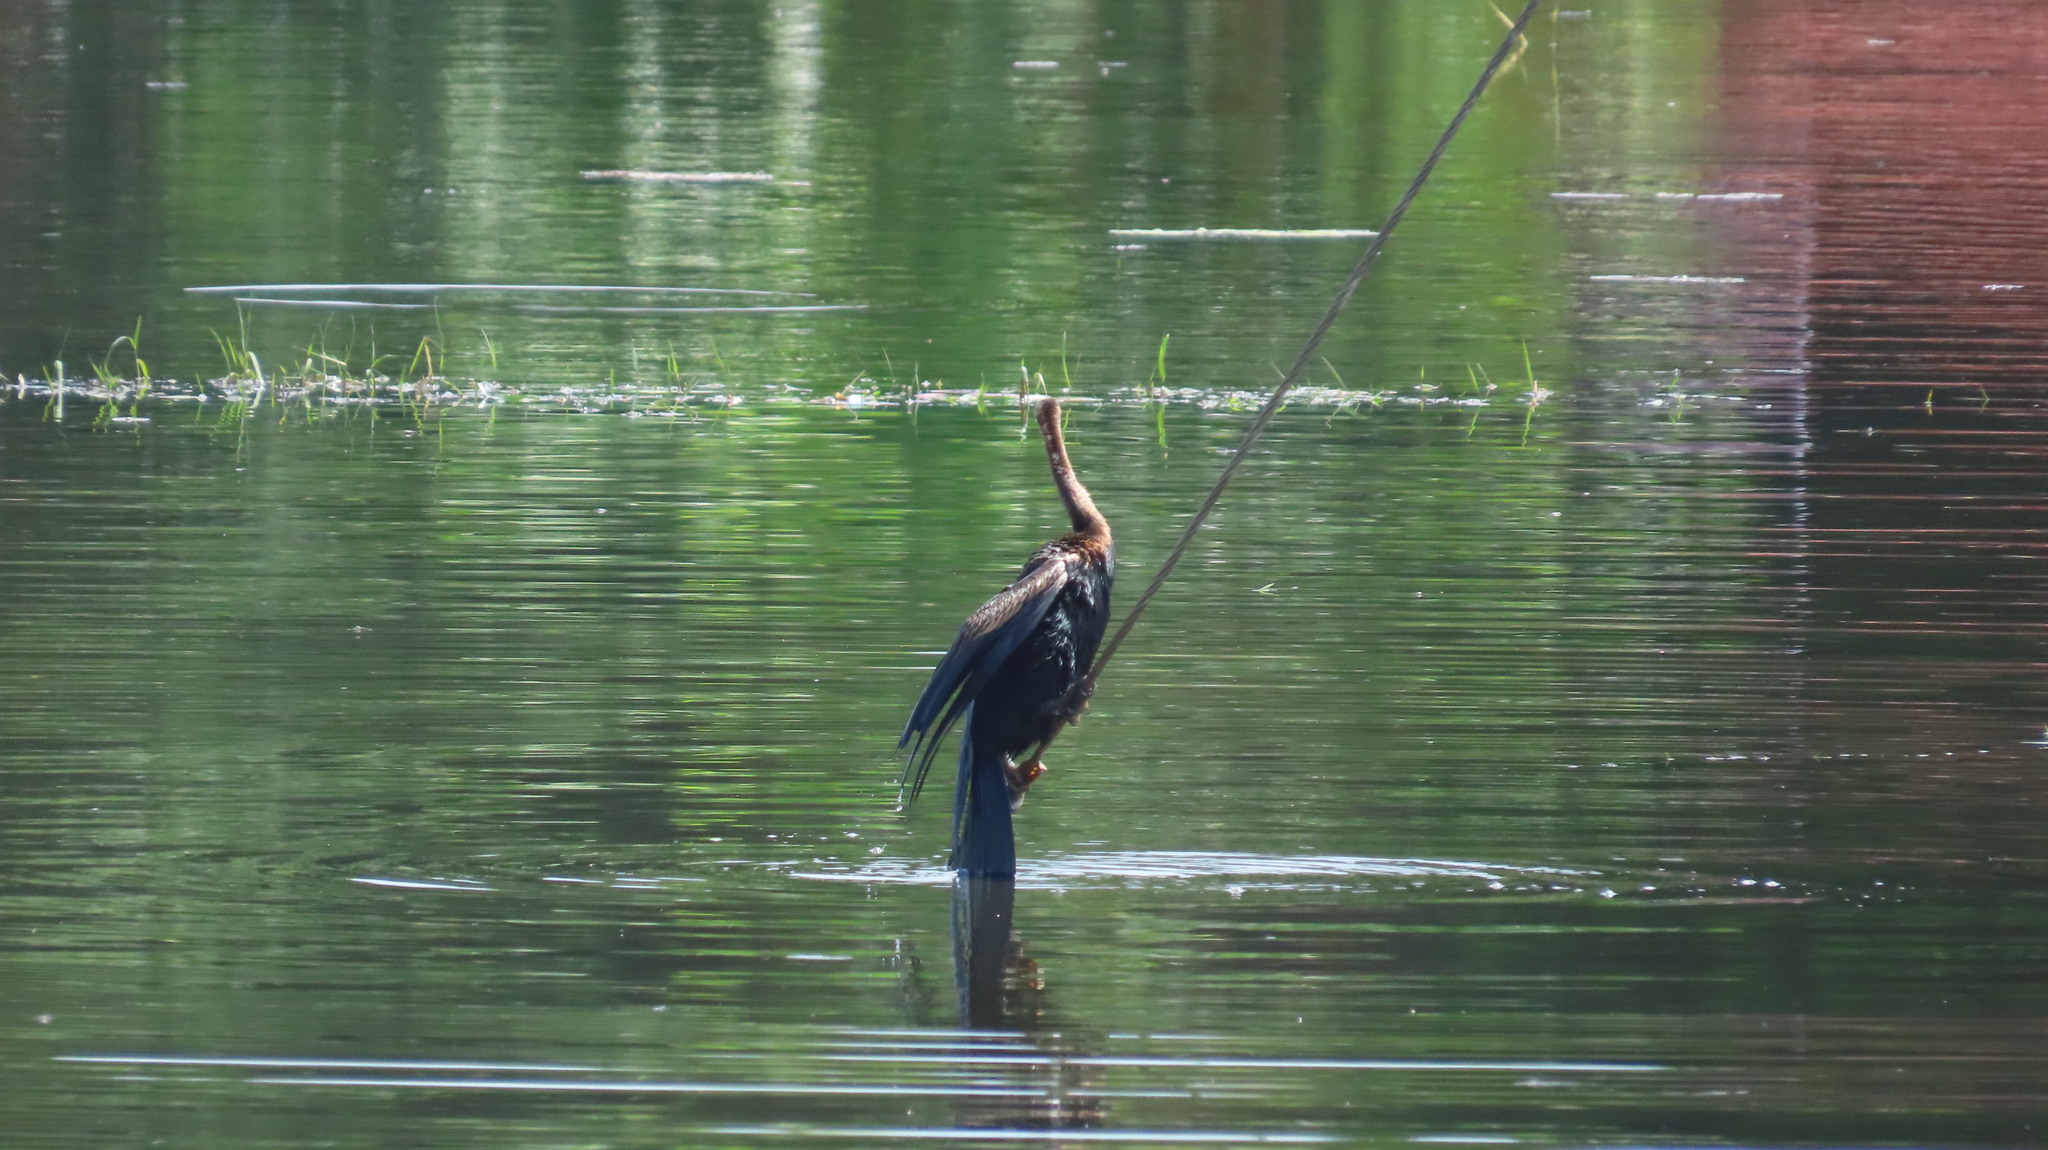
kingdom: Animalia
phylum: Chordata
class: Aves
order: Suliformes
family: Anhingidae
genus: Anhinga
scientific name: Anhinga melanogaster
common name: Oriental darter
